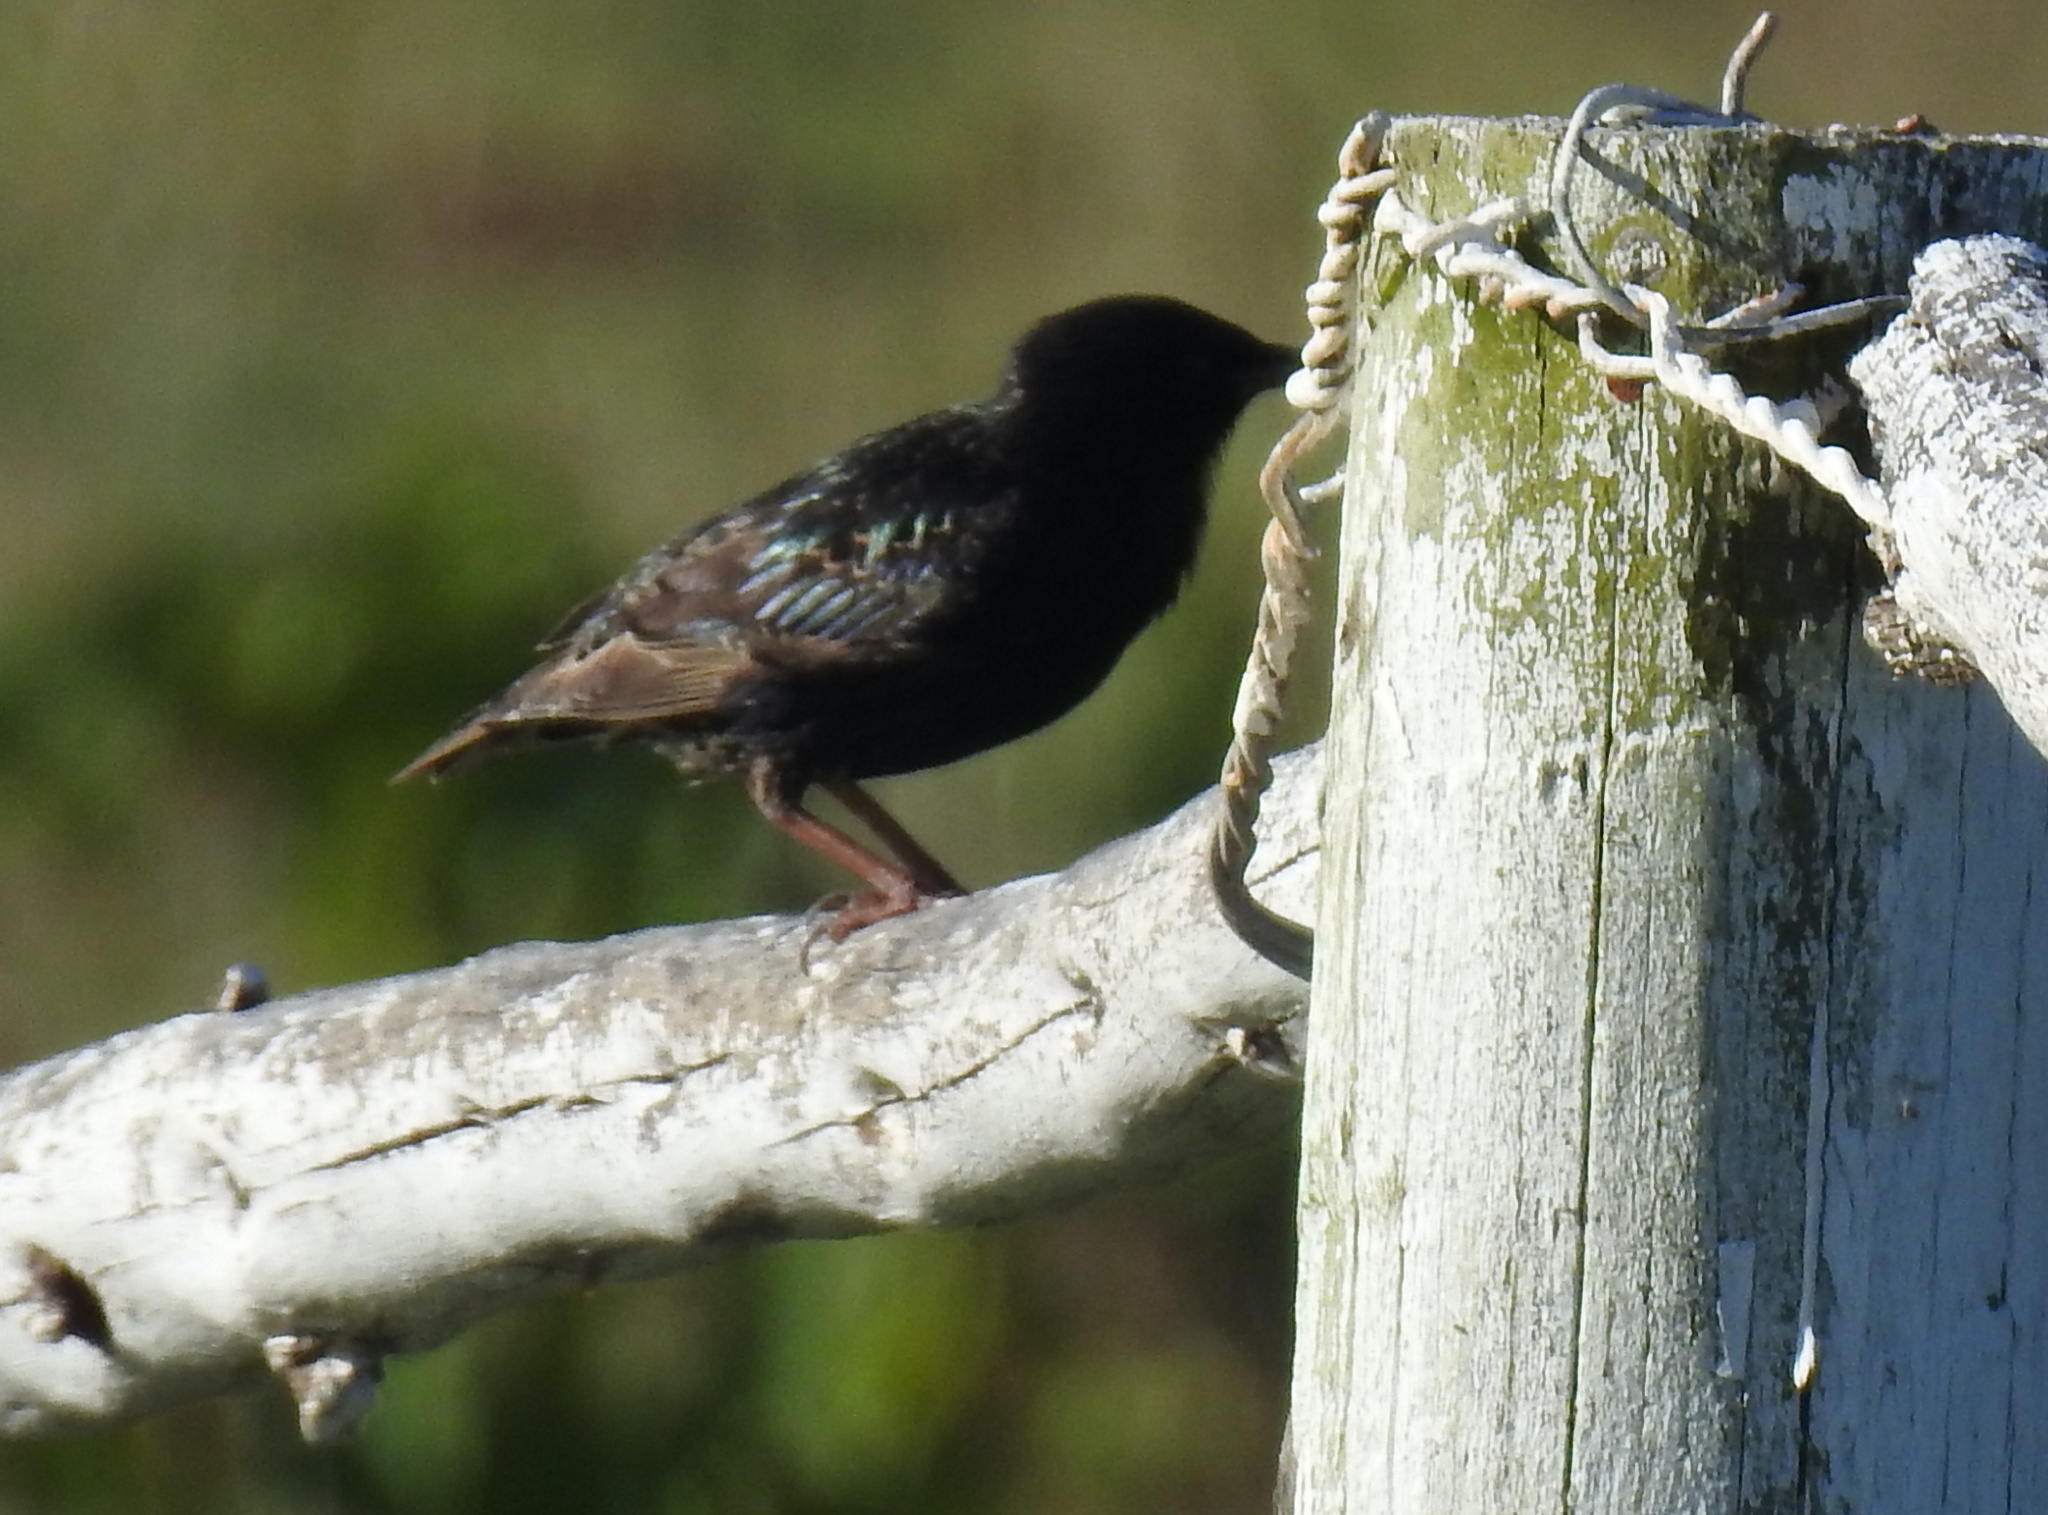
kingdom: Animalia
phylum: Chordata
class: Aves
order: Passeriformes
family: Sturnidae
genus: Sturnus
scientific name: Sturnus vulgaris
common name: Common starling
